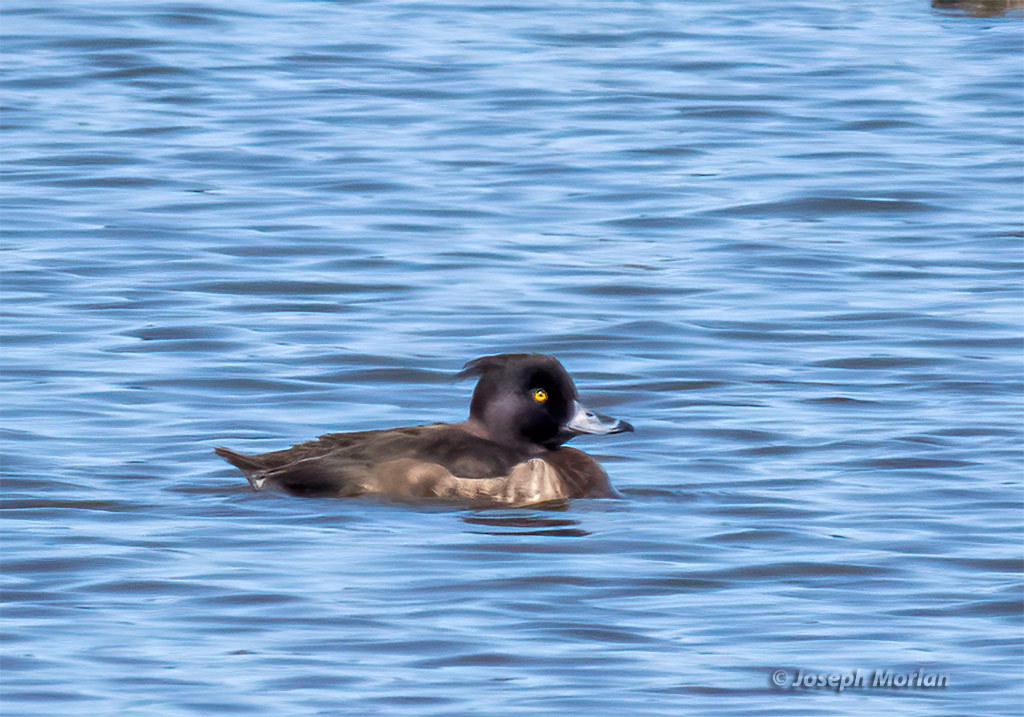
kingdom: Animalia
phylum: Chordata
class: Aves
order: Anseriformes
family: Anatidae
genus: Aythya
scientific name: Aythya fuligula
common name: Tufted duck
